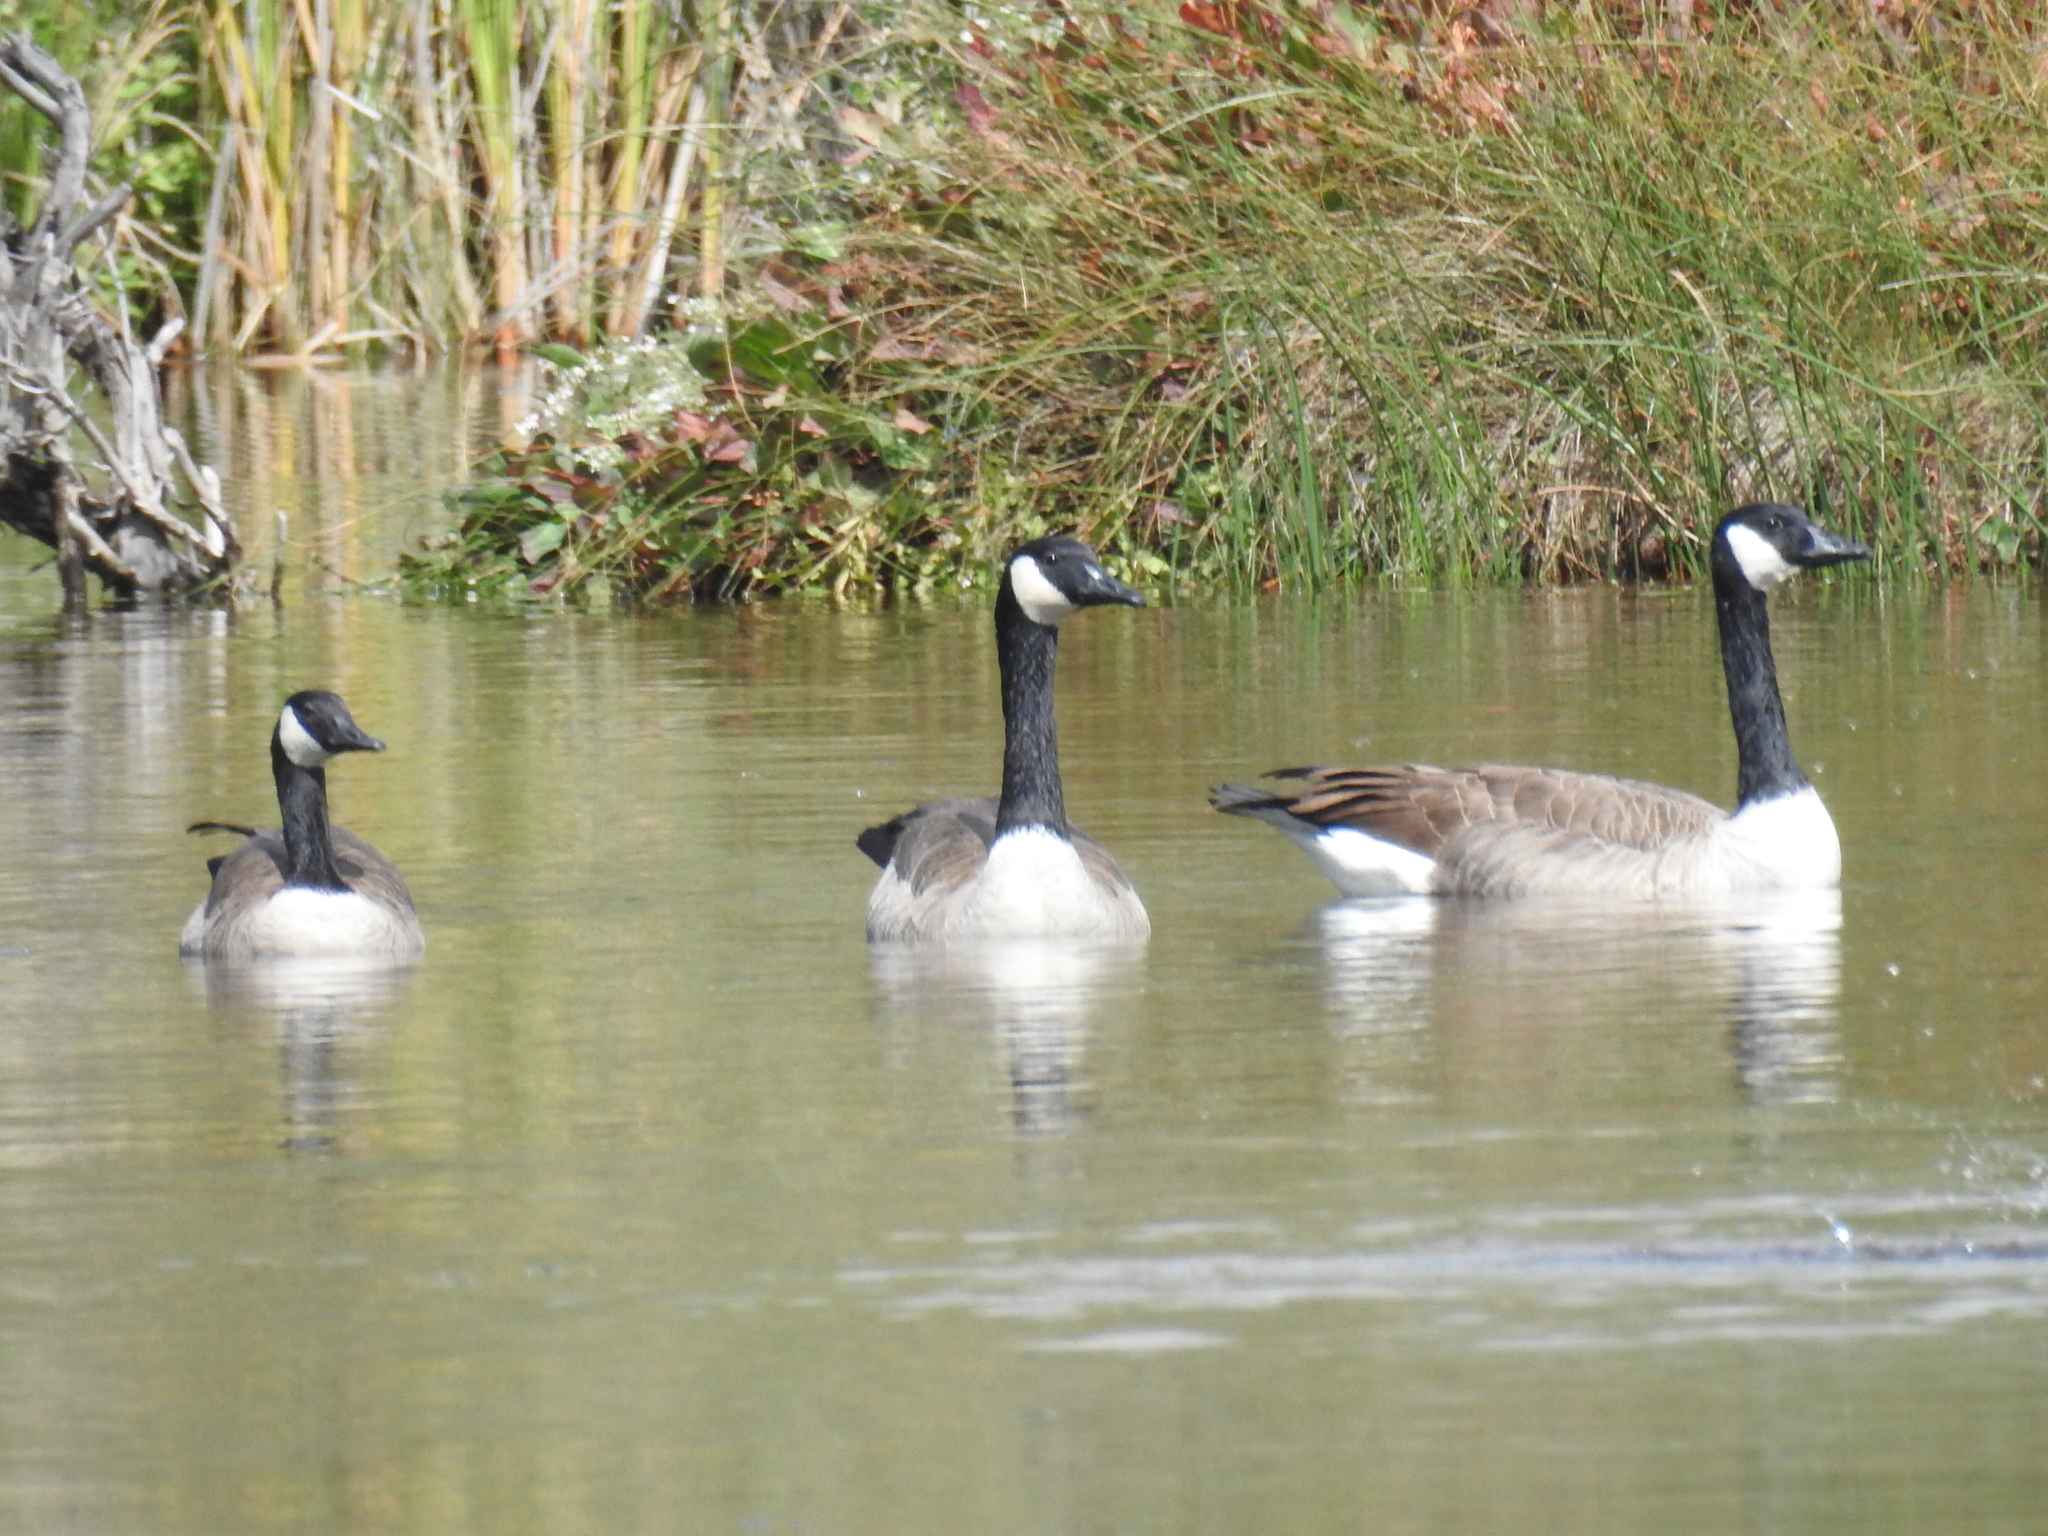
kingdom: Animalia
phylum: Chordata
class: Aves
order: Anseriformes
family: Anatidae
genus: Branta
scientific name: Branta canadensis
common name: Canada goose
